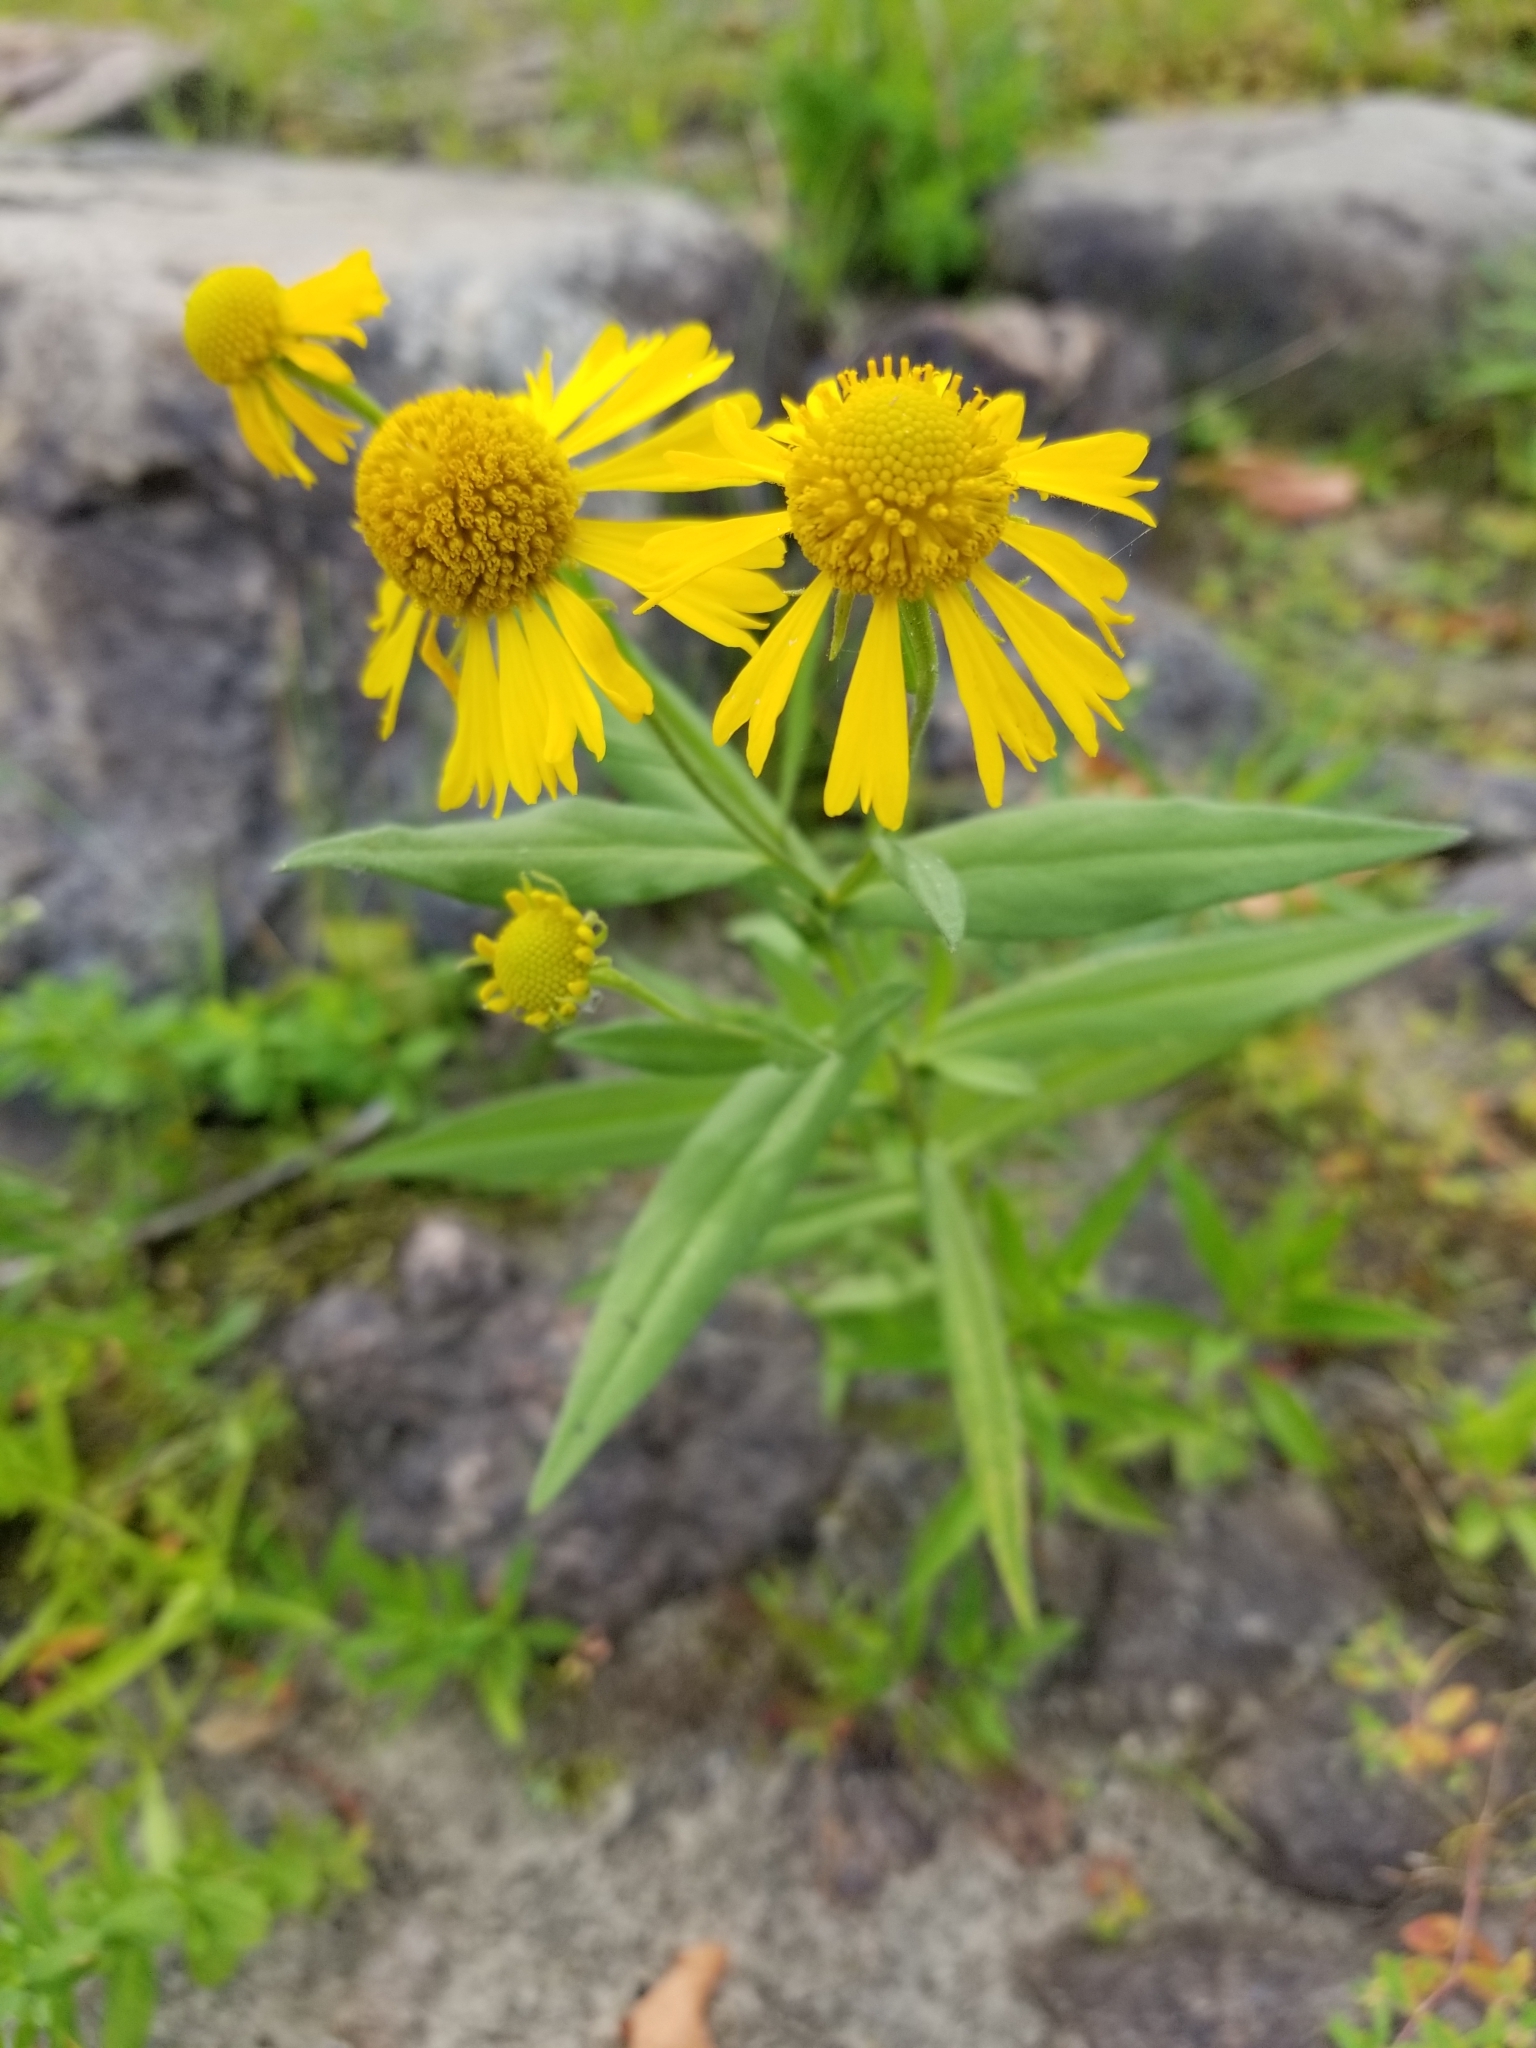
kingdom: Plantae
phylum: Tracheophyta
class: Magnoliopsida
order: Asterales
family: Asteraceae
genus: Helenium
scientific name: Helenium autumnale
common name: Sneezeweed
